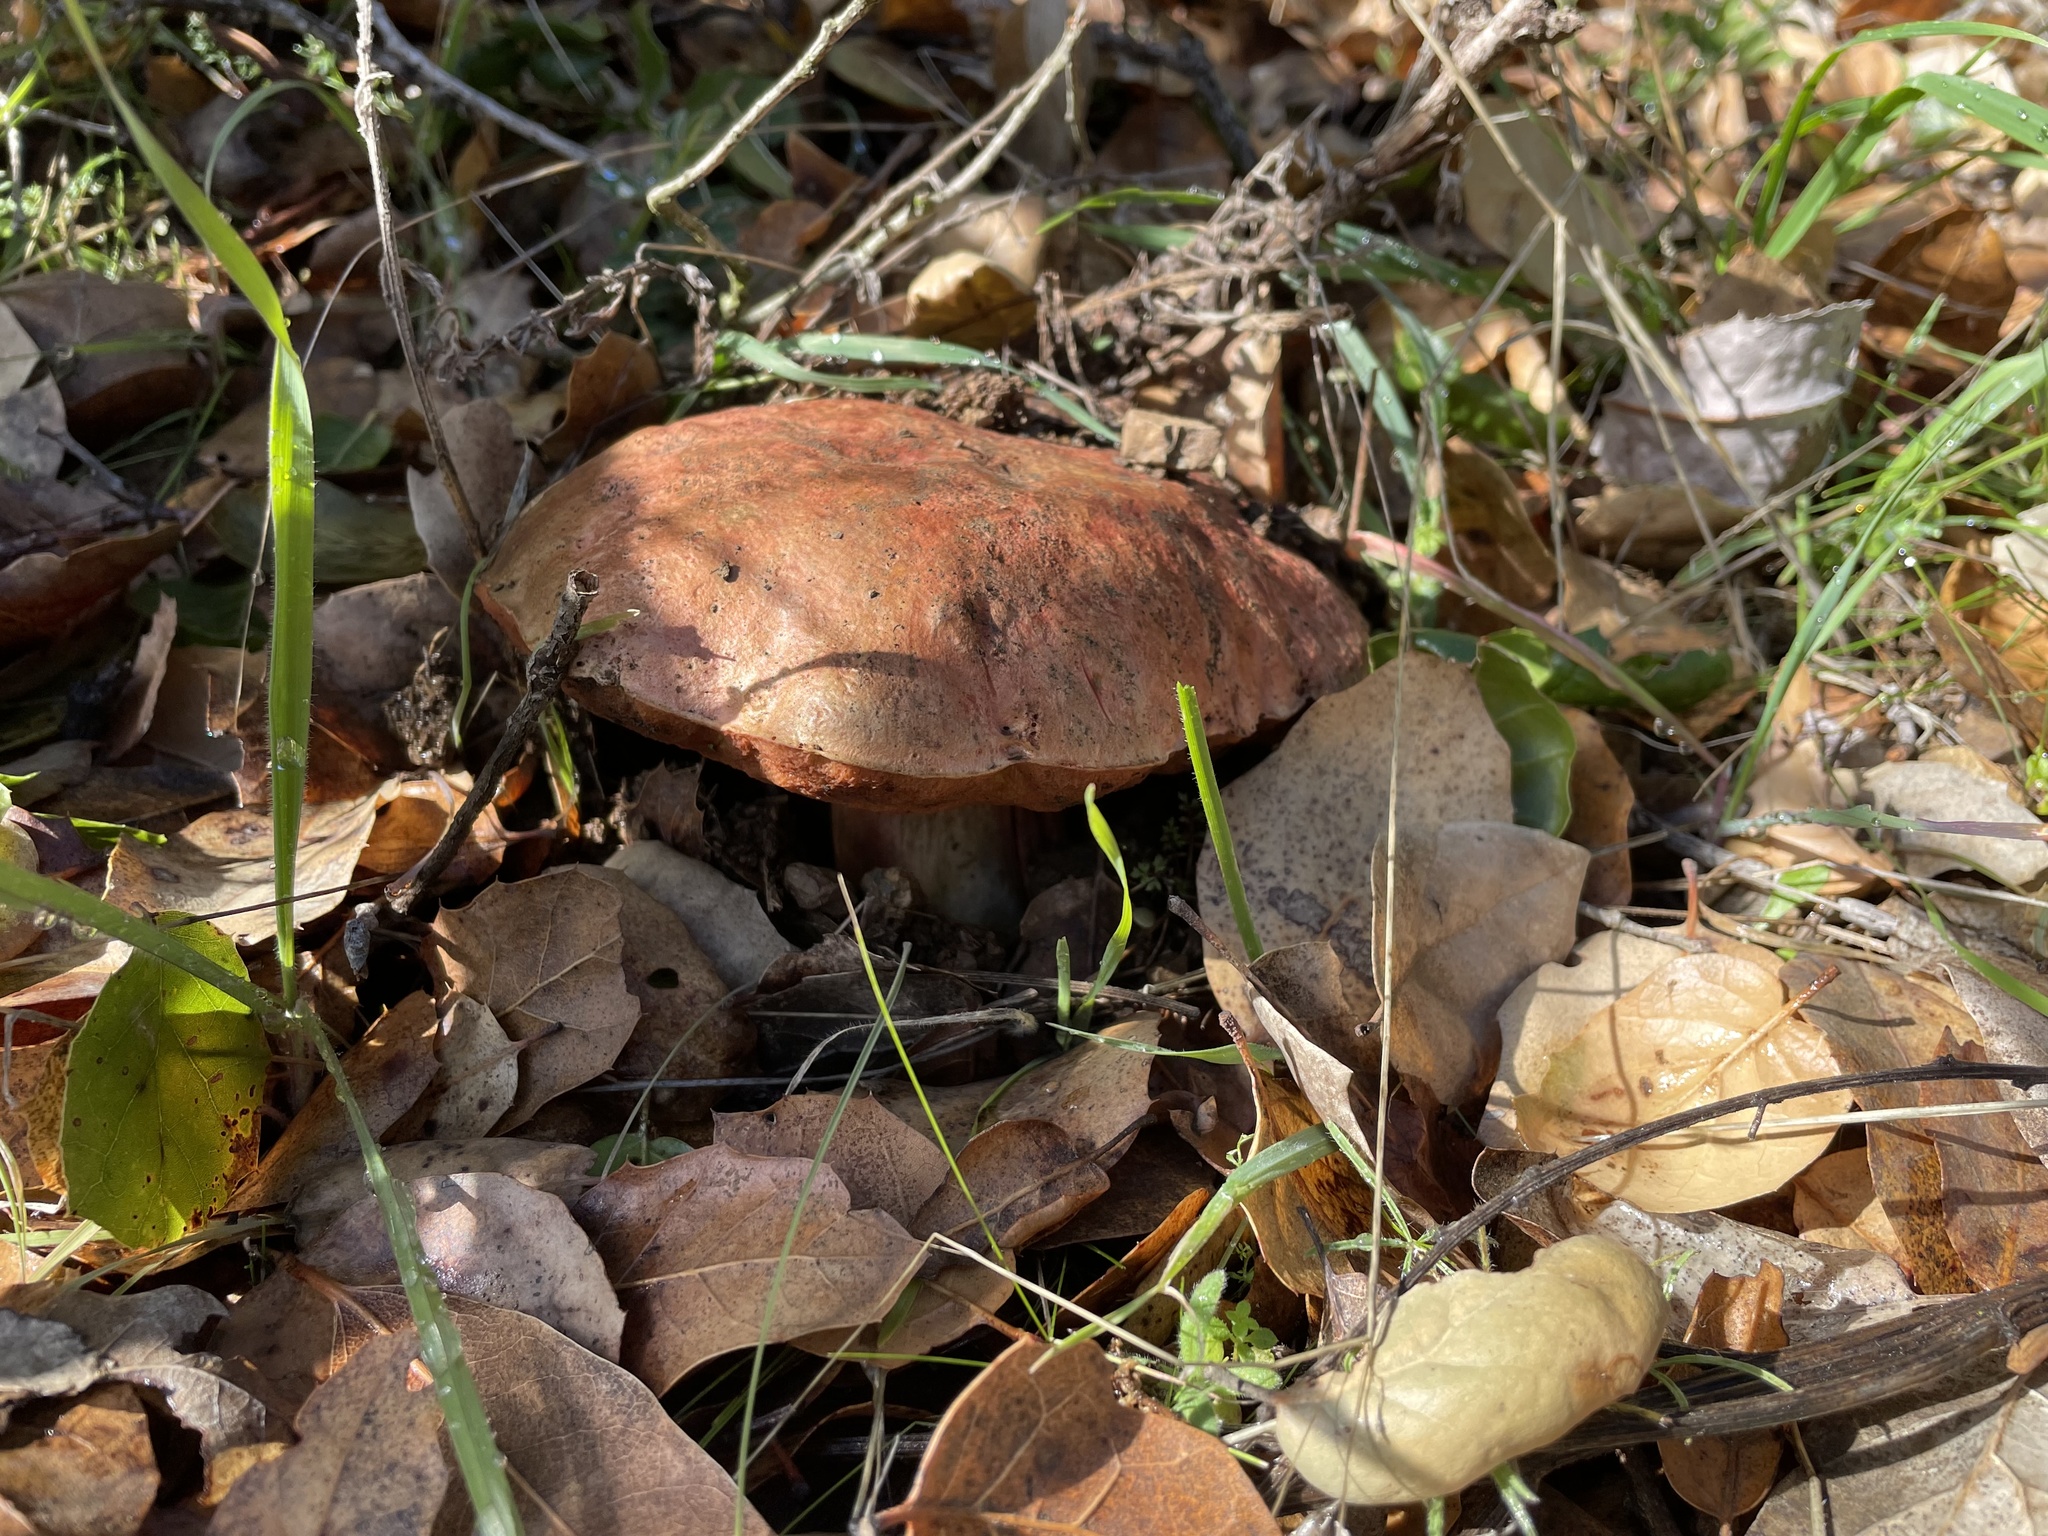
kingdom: Fungi
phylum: Basidiomycota
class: Agaricomycetes
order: Boletales
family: Boletaceae
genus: Suillellus
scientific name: Suillellus amygdalinus
